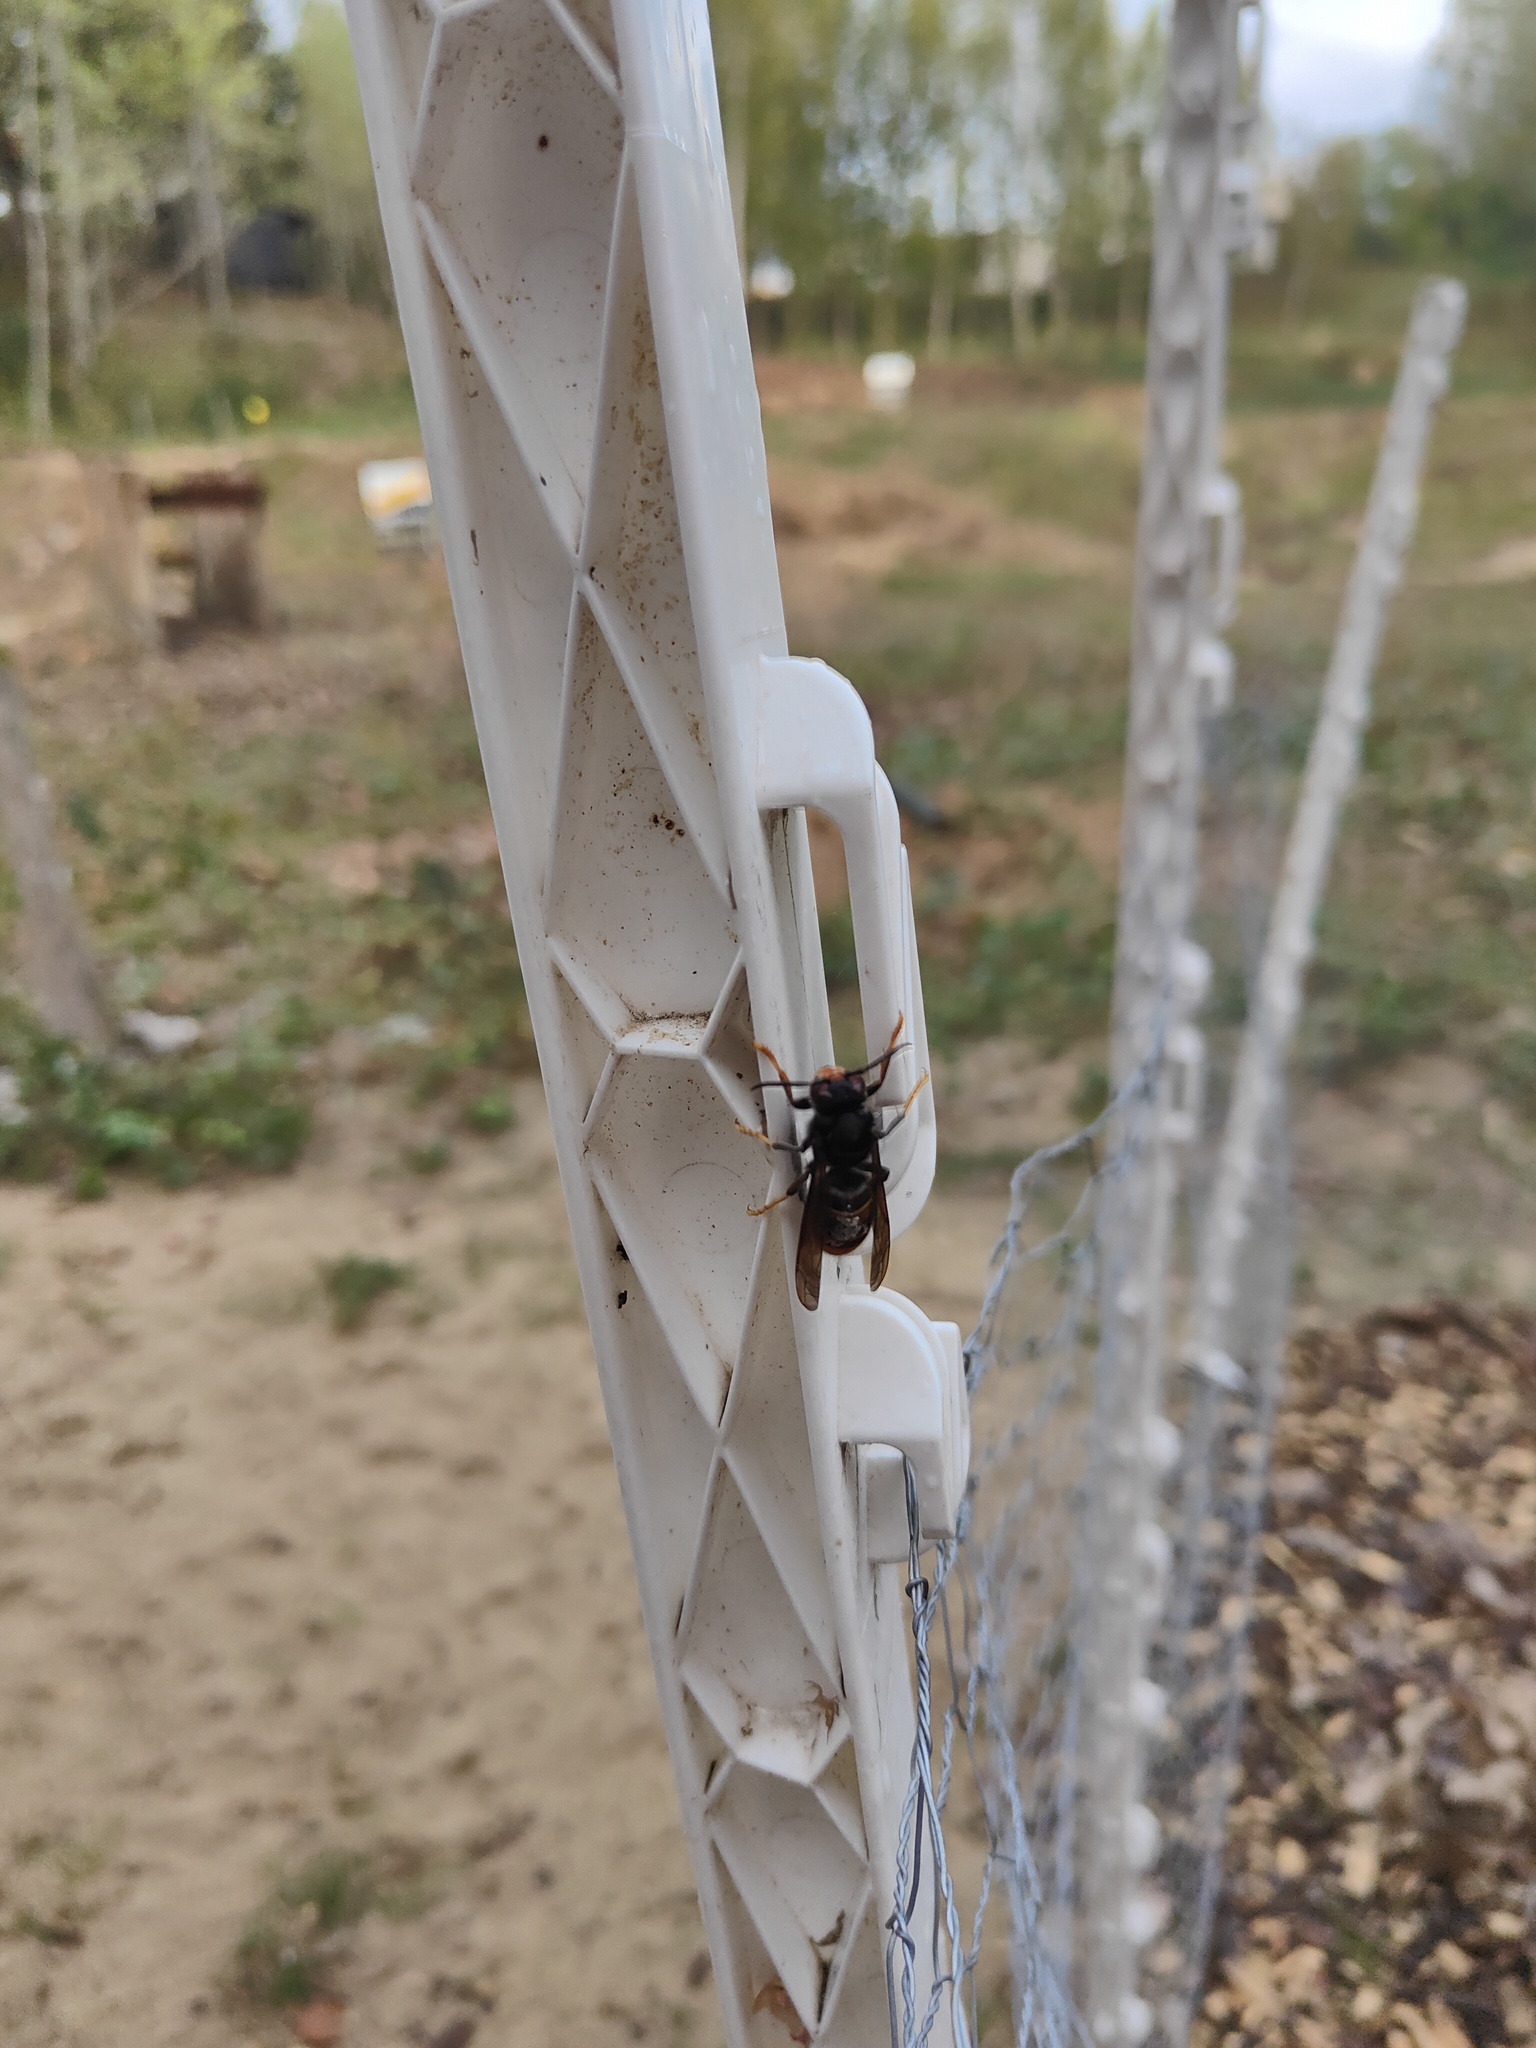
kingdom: Animalia
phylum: Arthropoda
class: Insecta
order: Hymenoptera
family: Vespidae
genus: Vespa
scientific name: Vespa velutina
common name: Asian hornet
